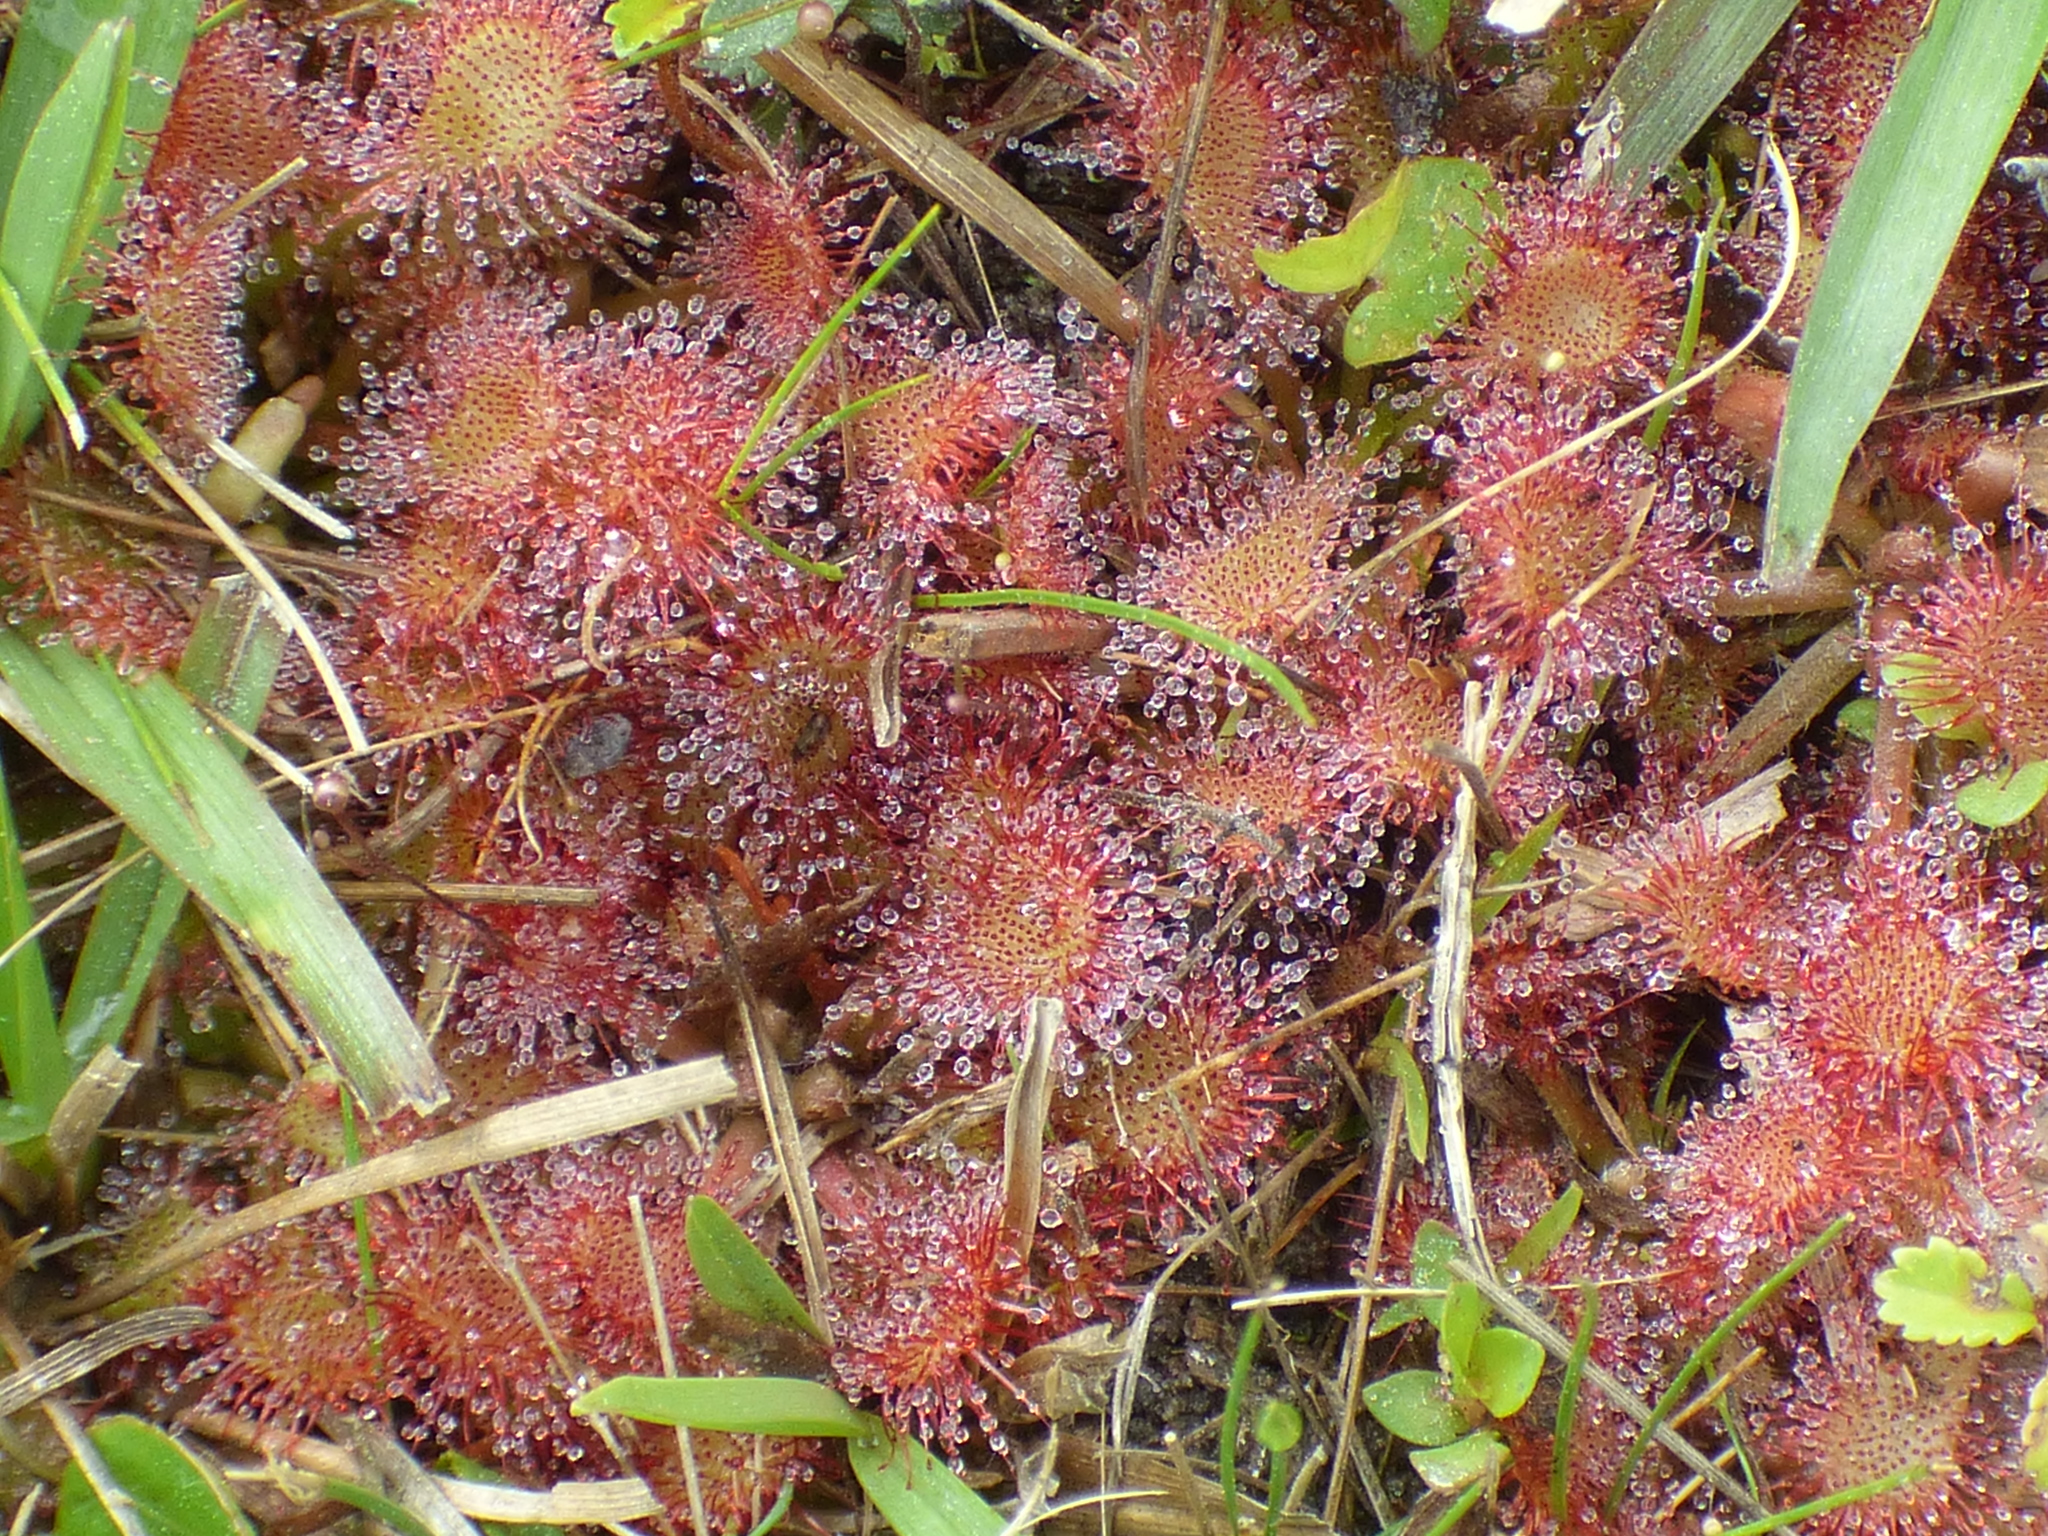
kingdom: Plantae
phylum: Tracheophyta
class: Magnoliopsida
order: Caryophyllales
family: Droseraceae
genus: Drosera
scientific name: Drosera capillaris
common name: Pink sundew
